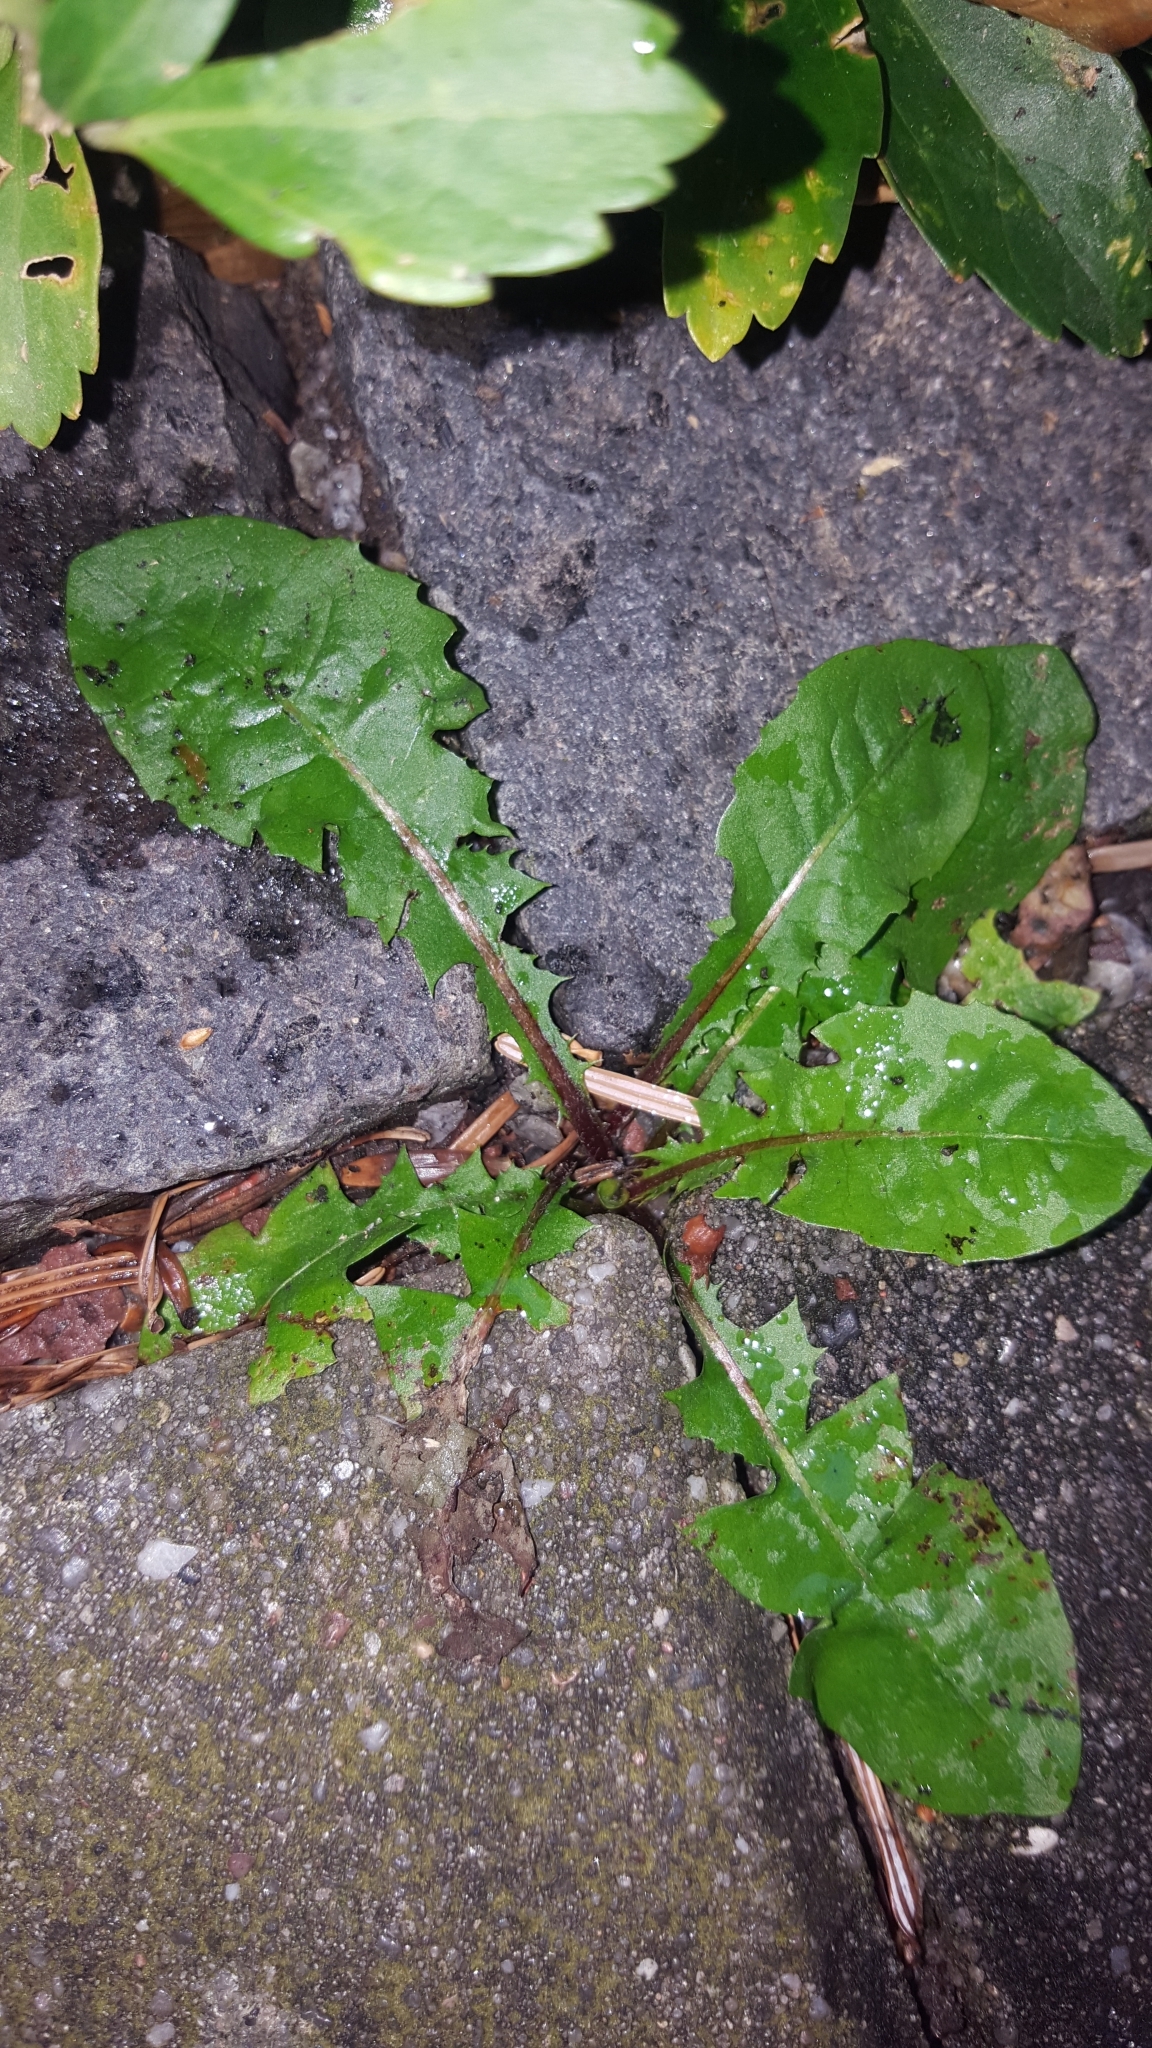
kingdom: Plantae
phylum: Tracheophyta
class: Magnoliopsida
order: Asterales
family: Asteraceae
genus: Taraxacum
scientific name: Taraxacum officinale
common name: Common dandelion
